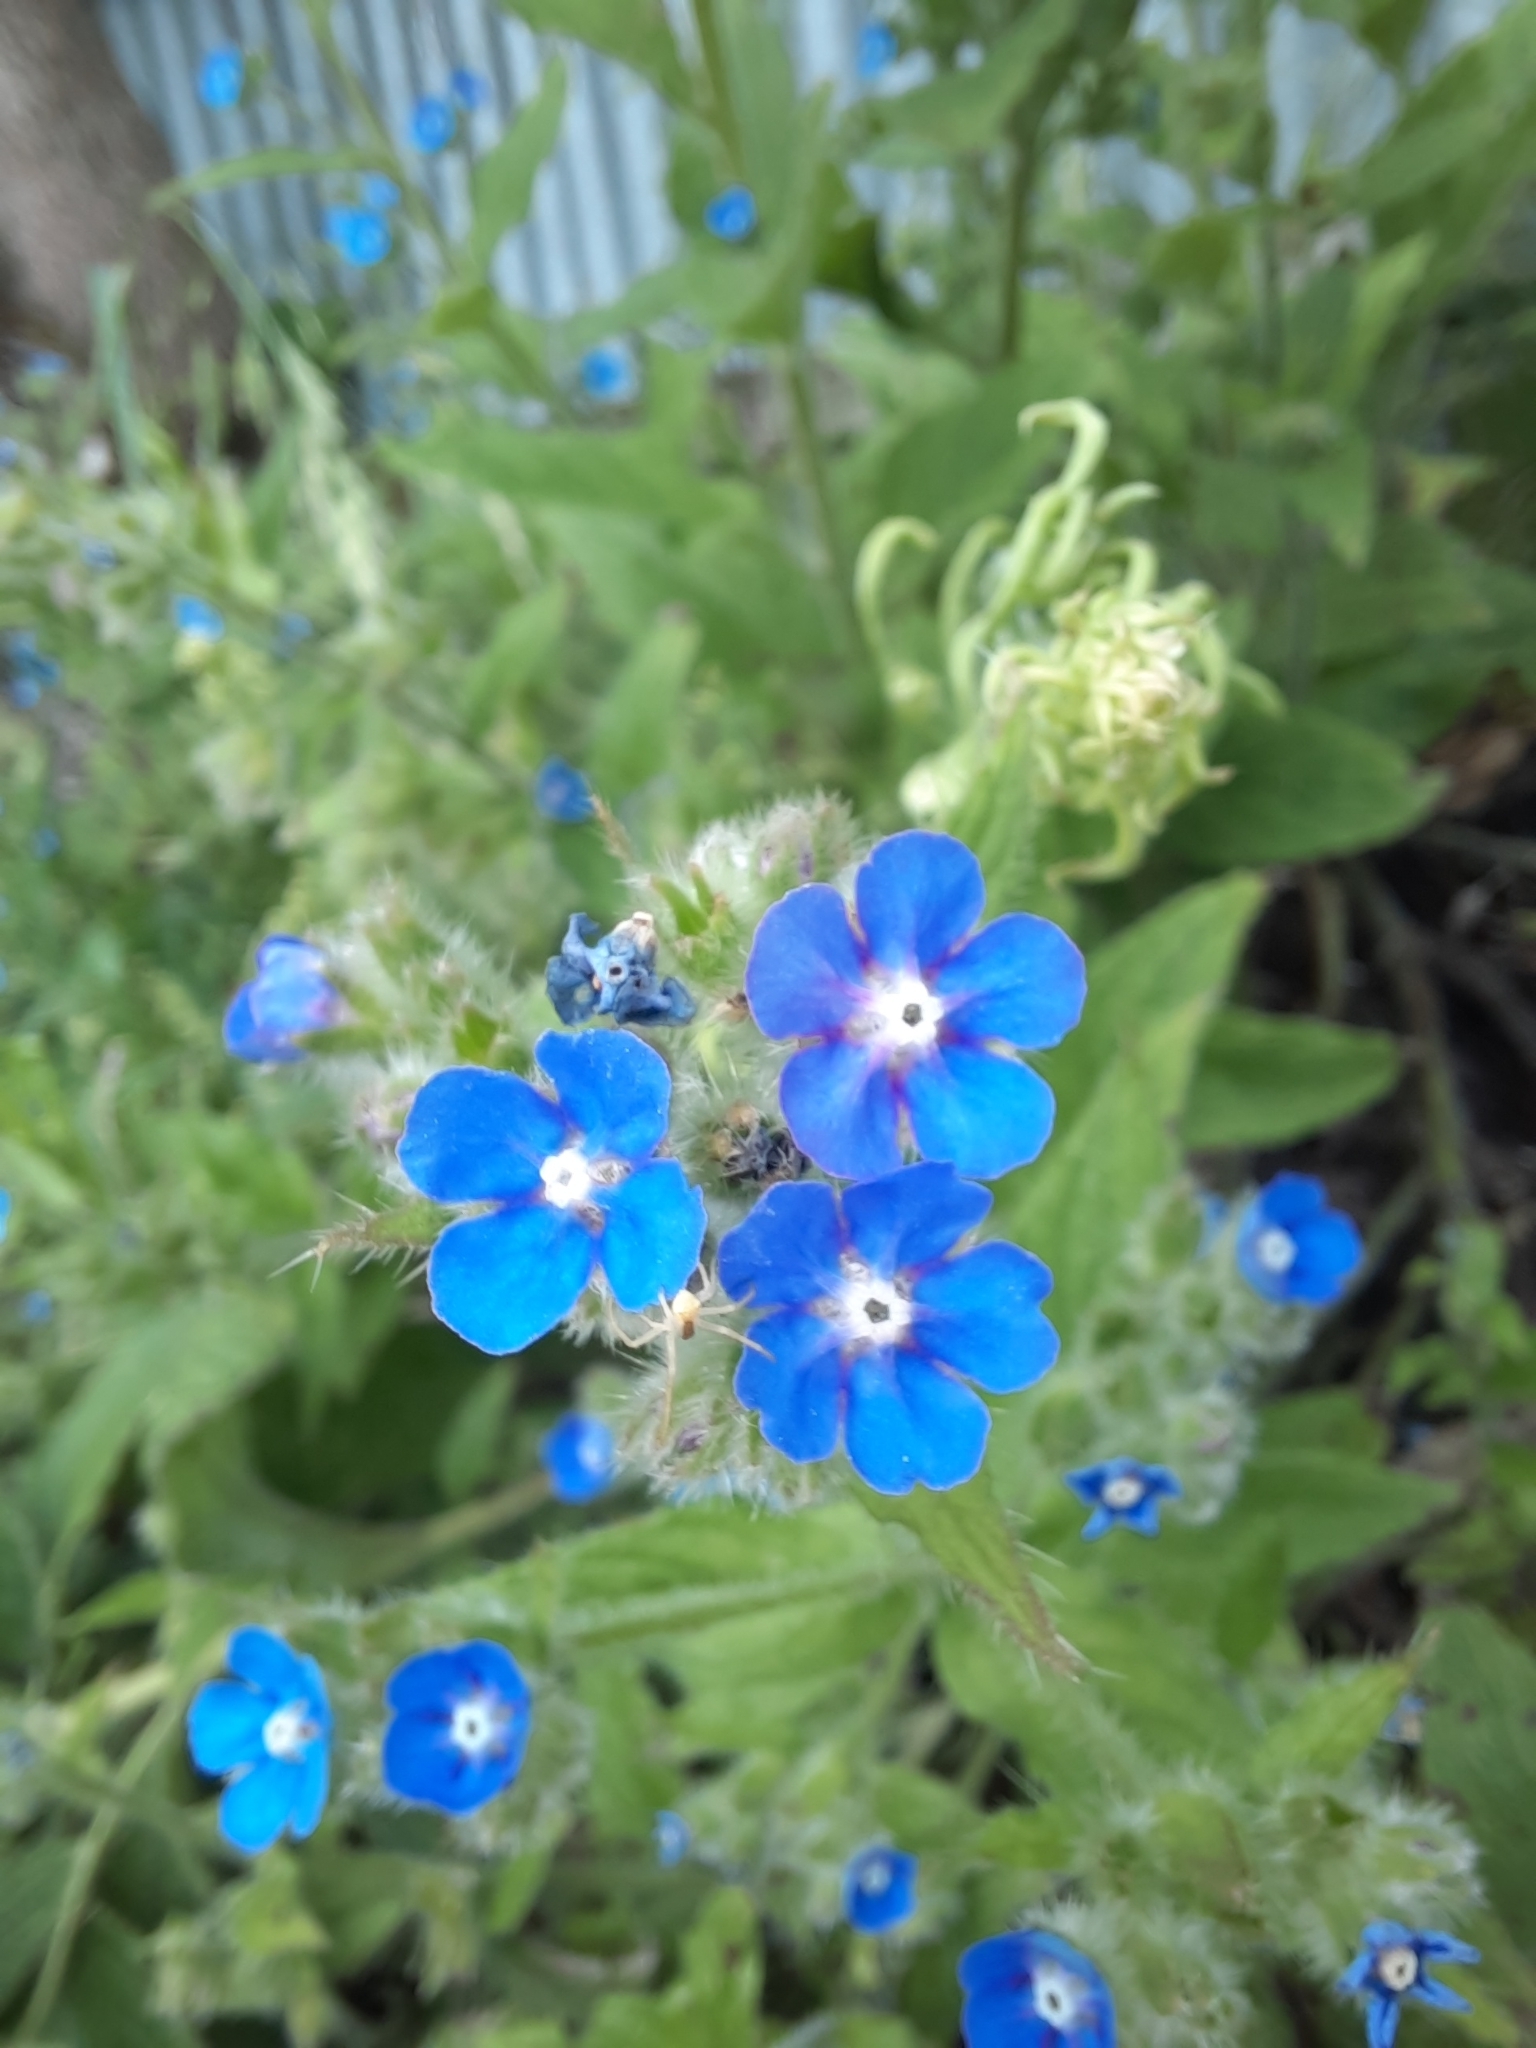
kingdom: Plantae
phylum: Tracheophyta
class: Magnoliopsida
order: Boraginales
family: Boraginaceae
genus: Pentaglottis
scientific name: Pentaglottis sempervirens
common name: Green alkanet
